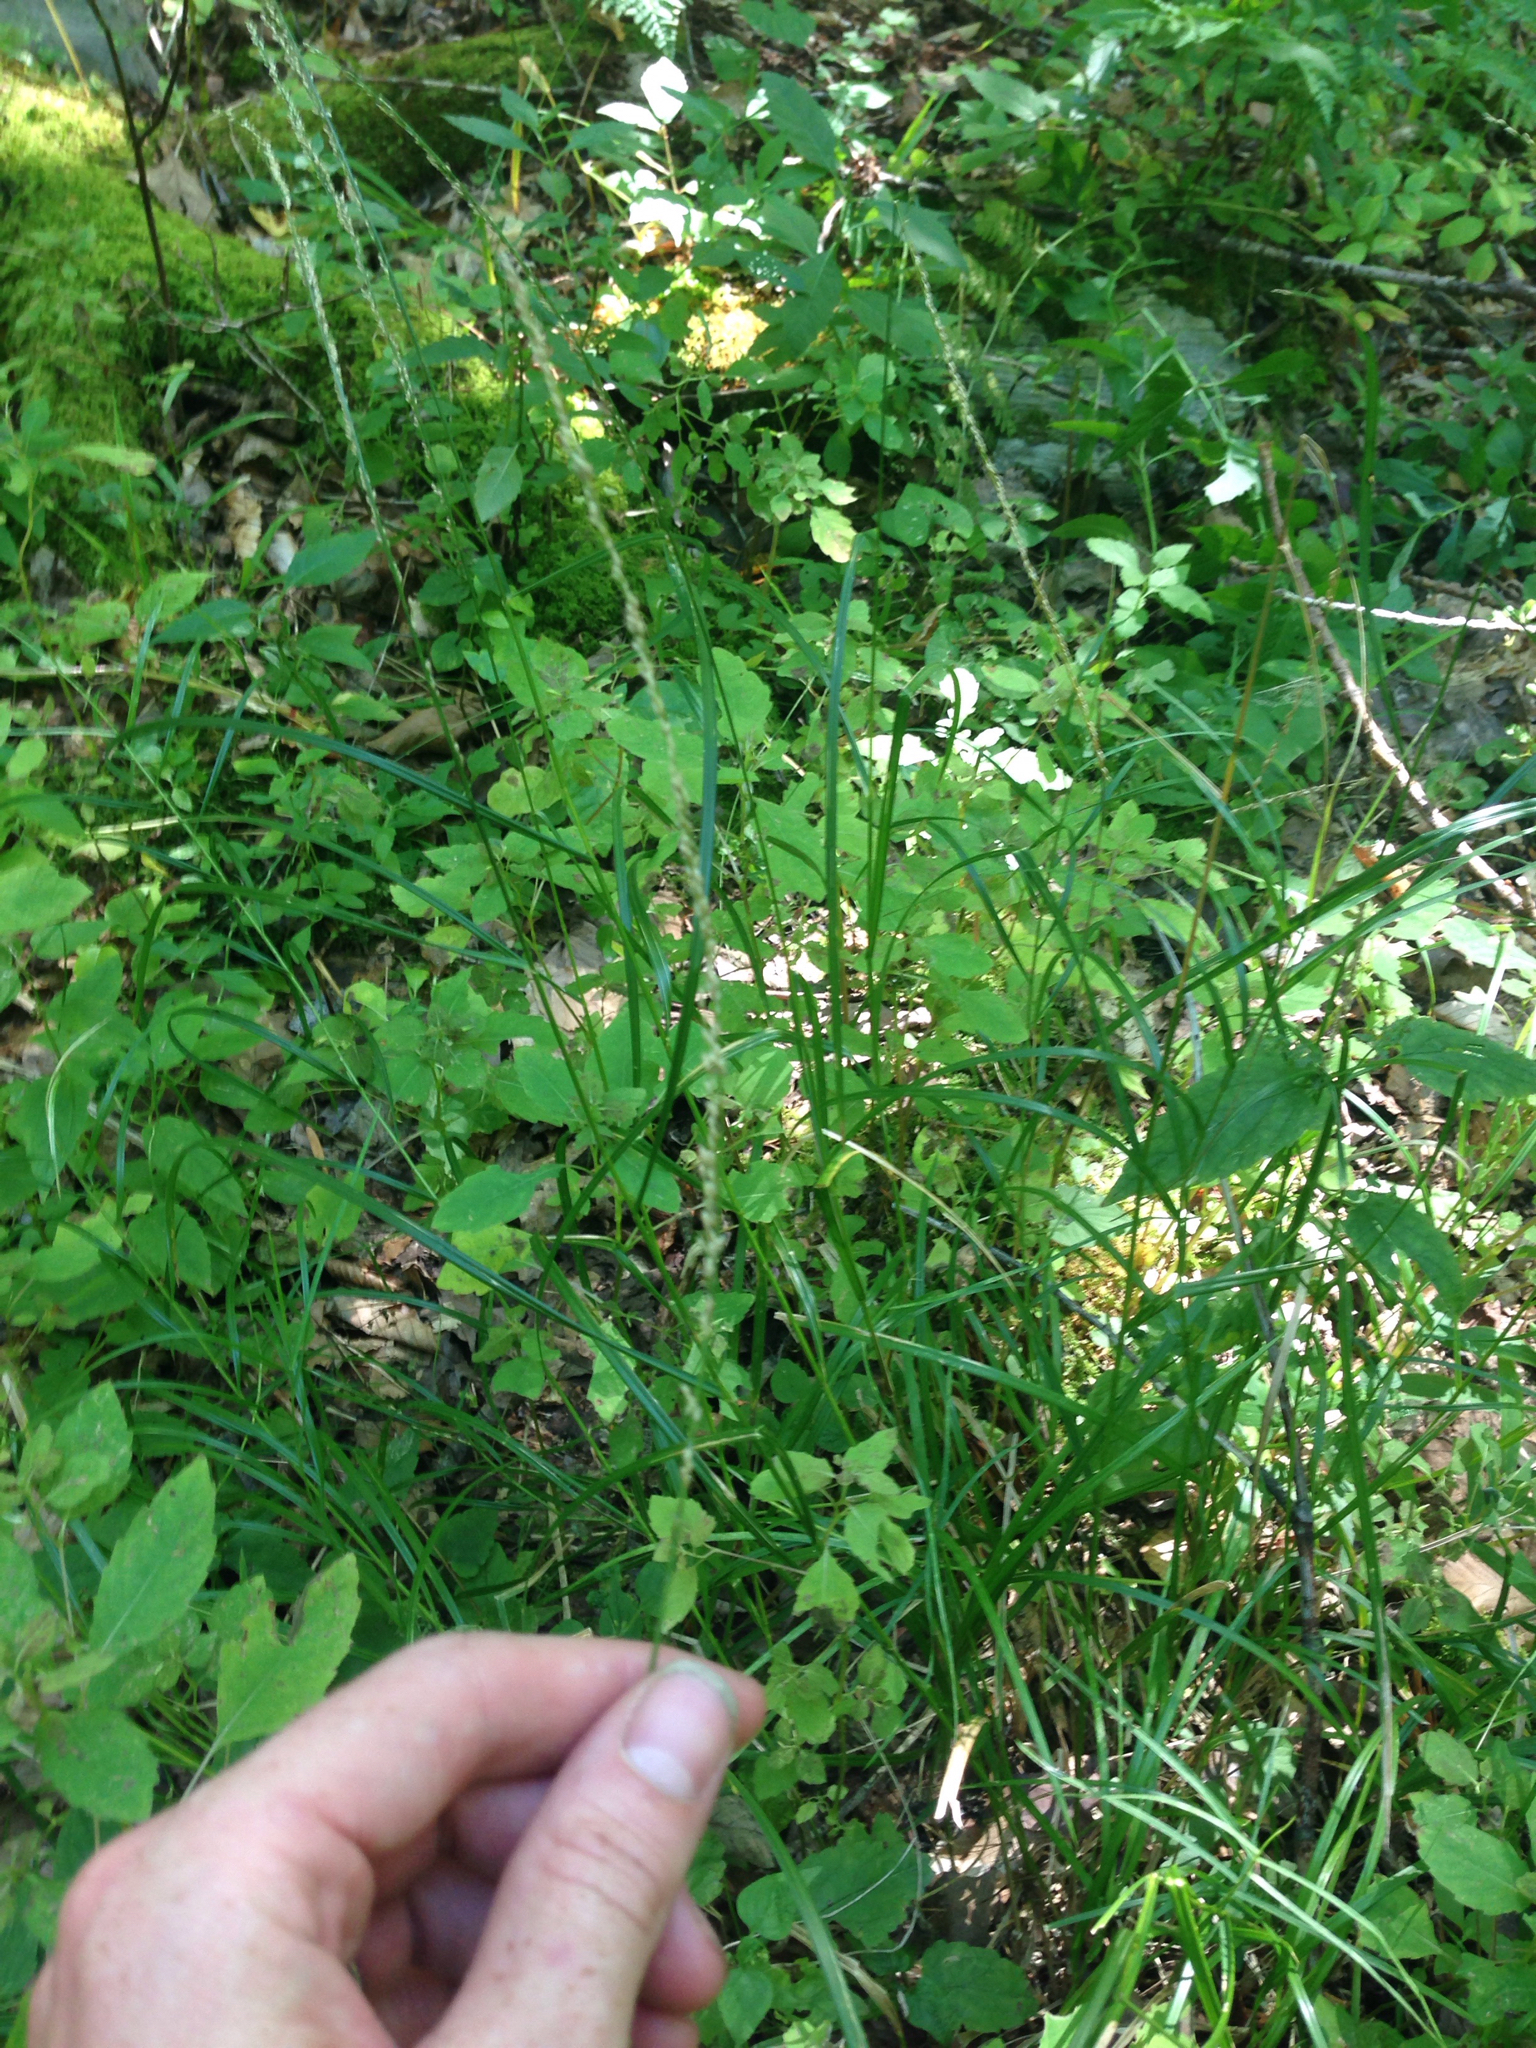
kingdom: Plantae
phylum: Tracheophyta
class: Magnoliopsida
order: Ericales
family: Balsaminaceae
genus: Impatiens
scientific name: Impatiens capensis
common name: Orange balsam
